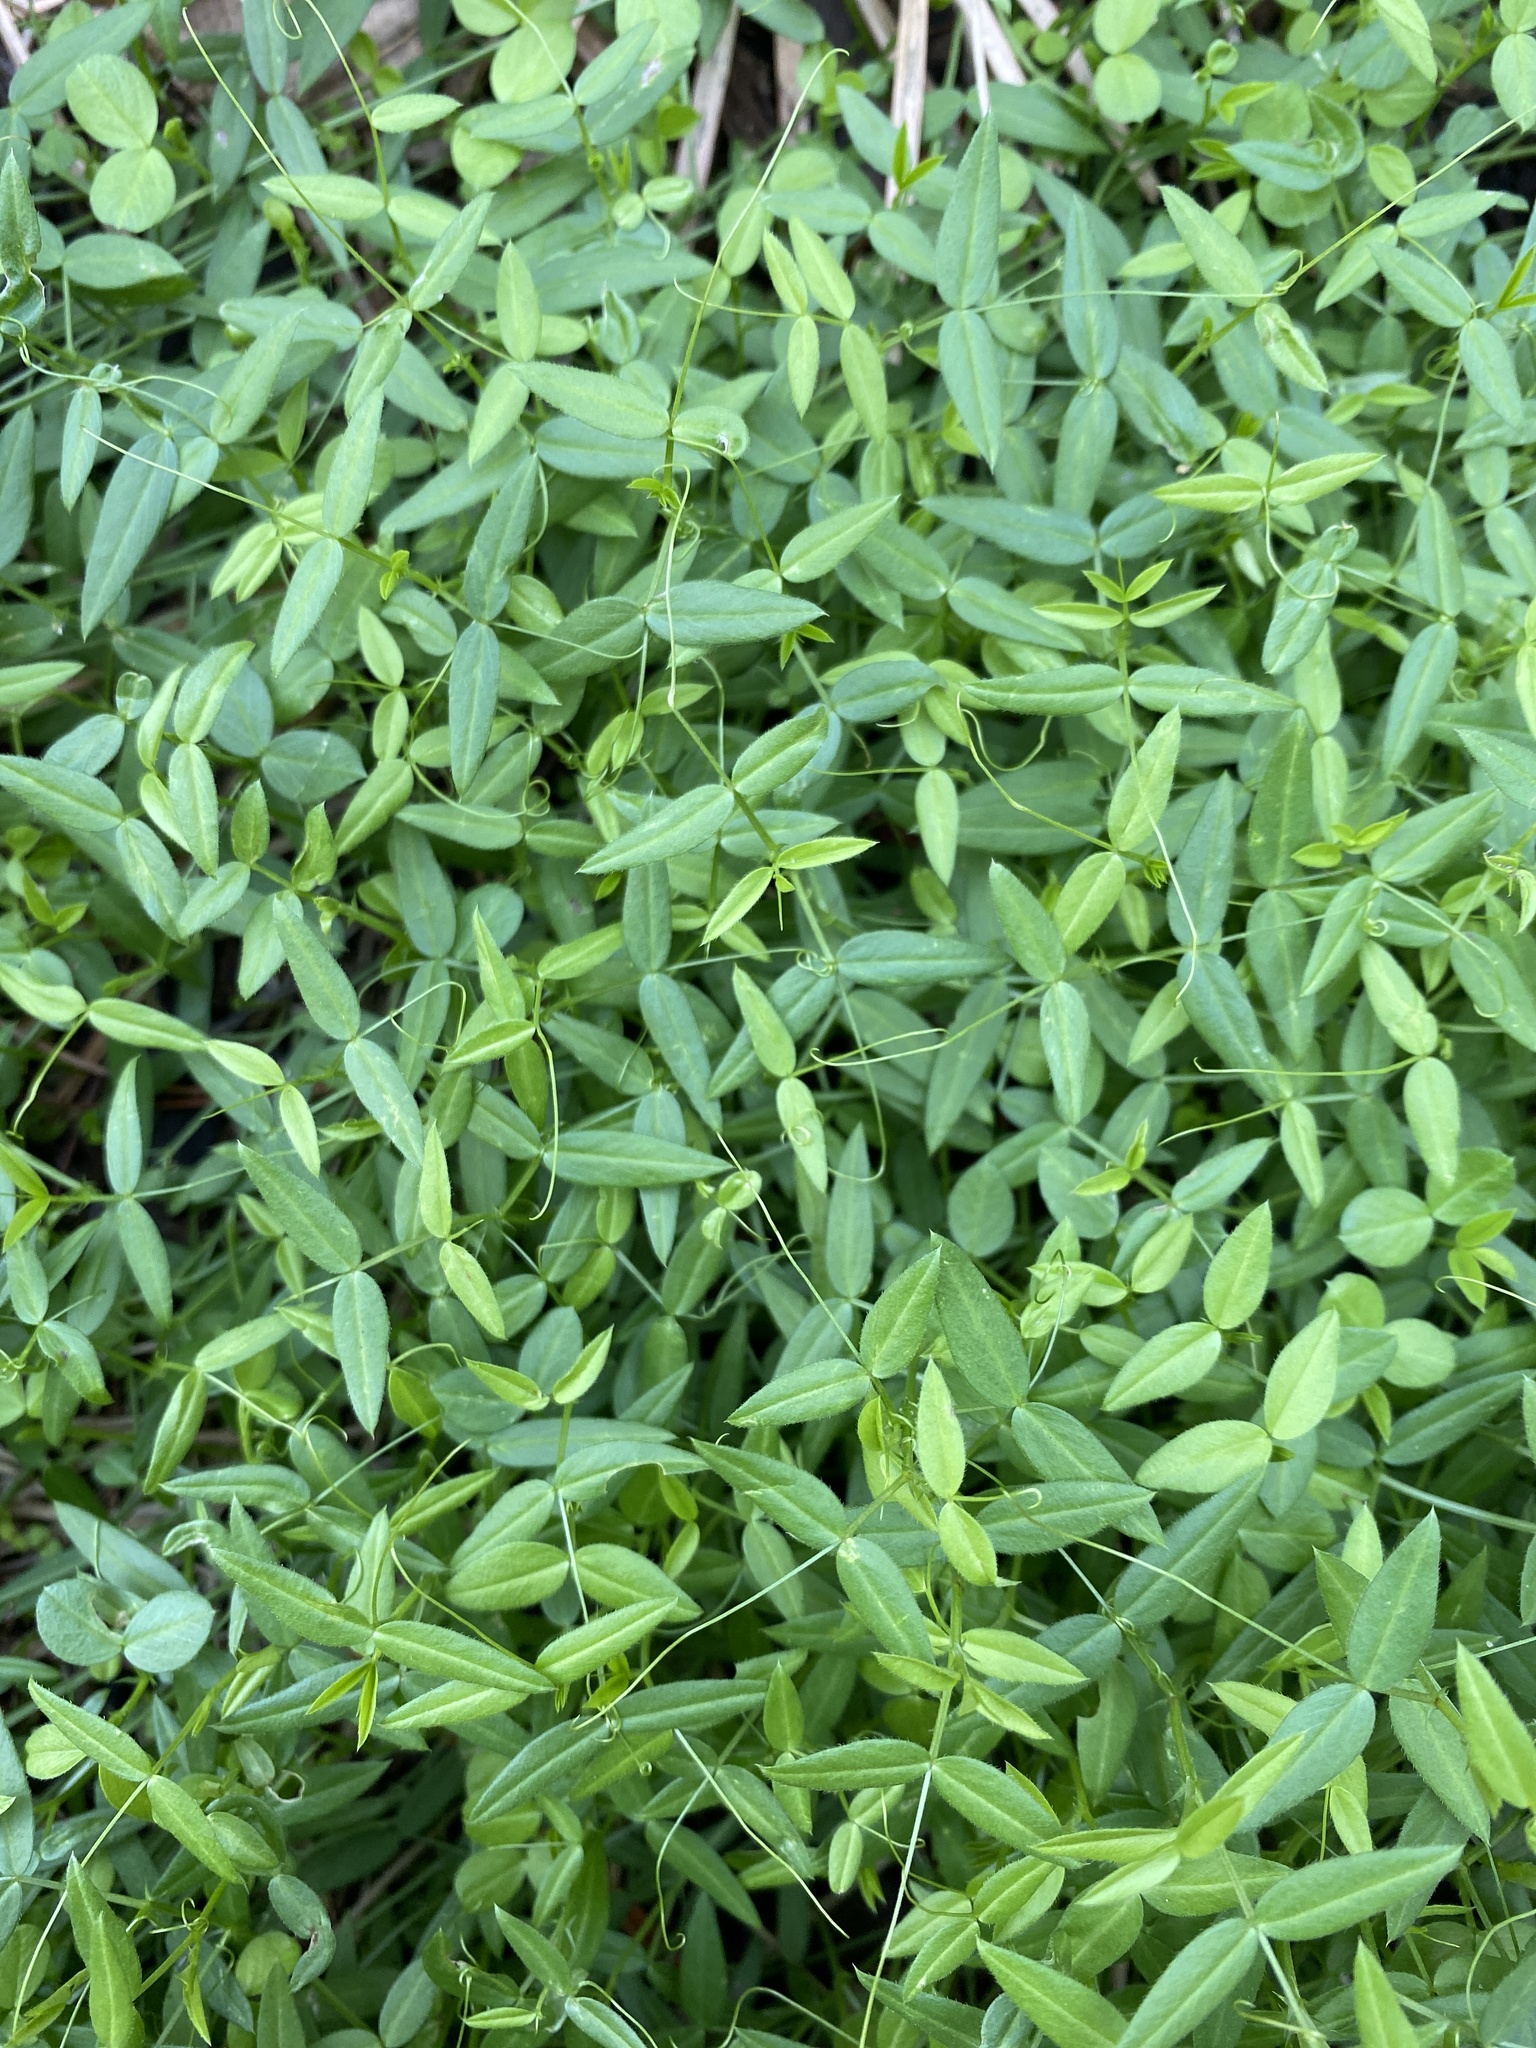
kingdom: Plantae
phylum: Tracheophyta
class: Magnoliopsida
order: Fabales
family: Fabaceae
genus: Vicia
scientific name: Vicia sativa
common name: Garden vetch
